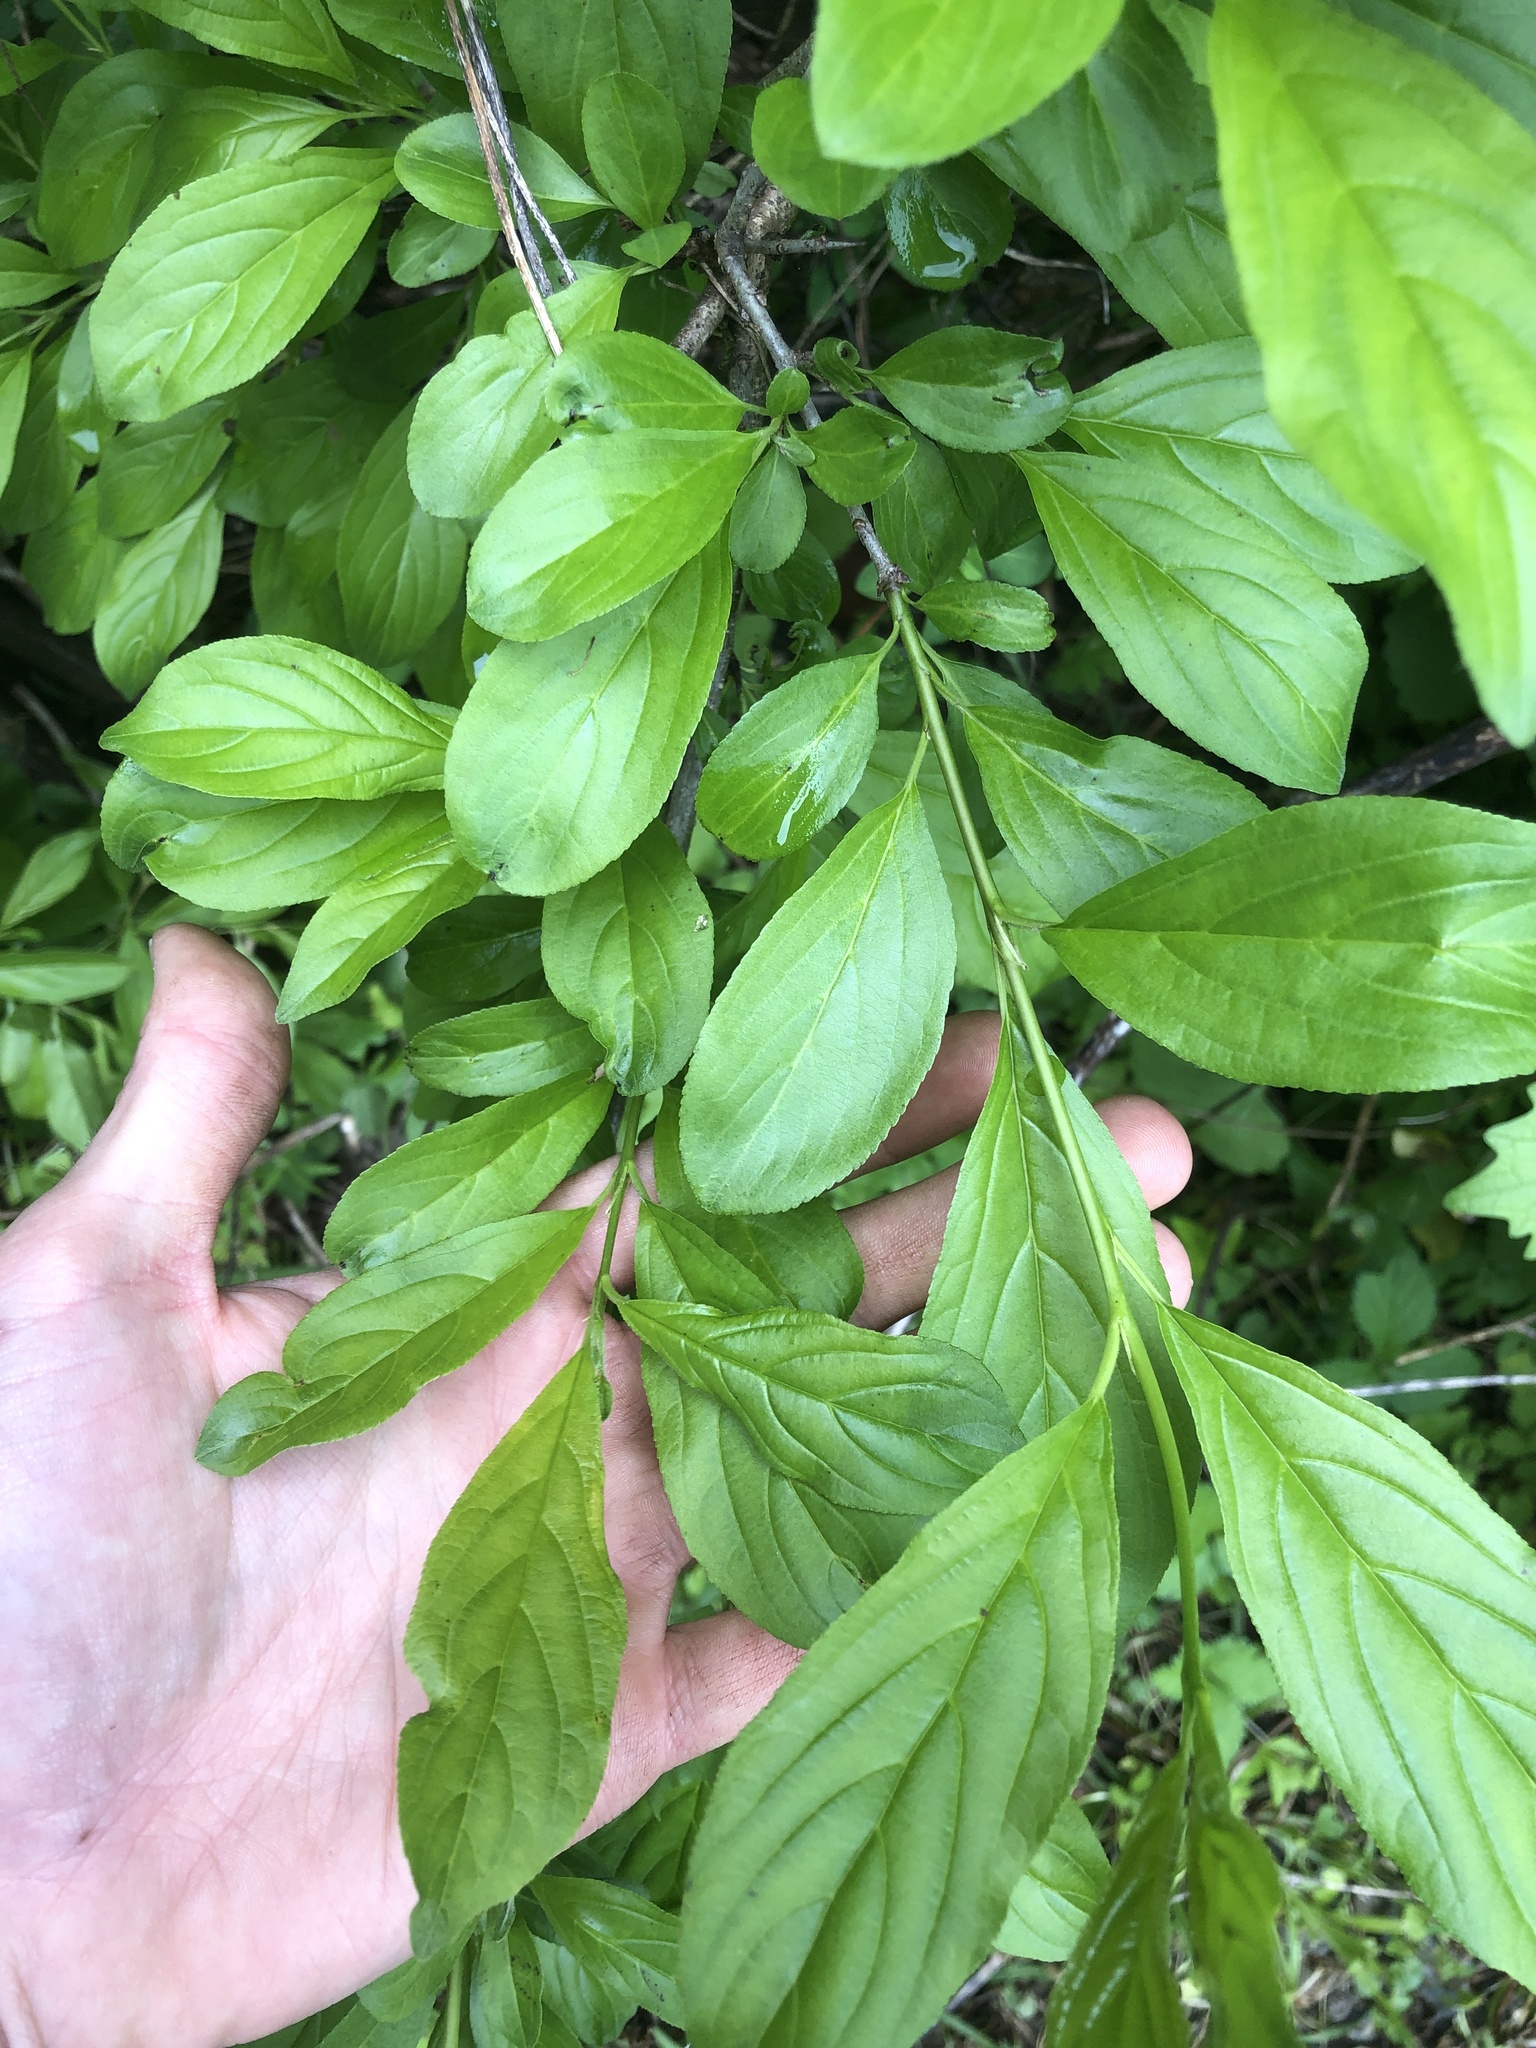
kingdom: Plantae
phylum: Tracheophyta
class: Magnoliopsida
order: Rosales
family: Rhamnaceae
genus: Rhamnus
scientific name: Rhamnus cathartica
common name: Common buckthorn
